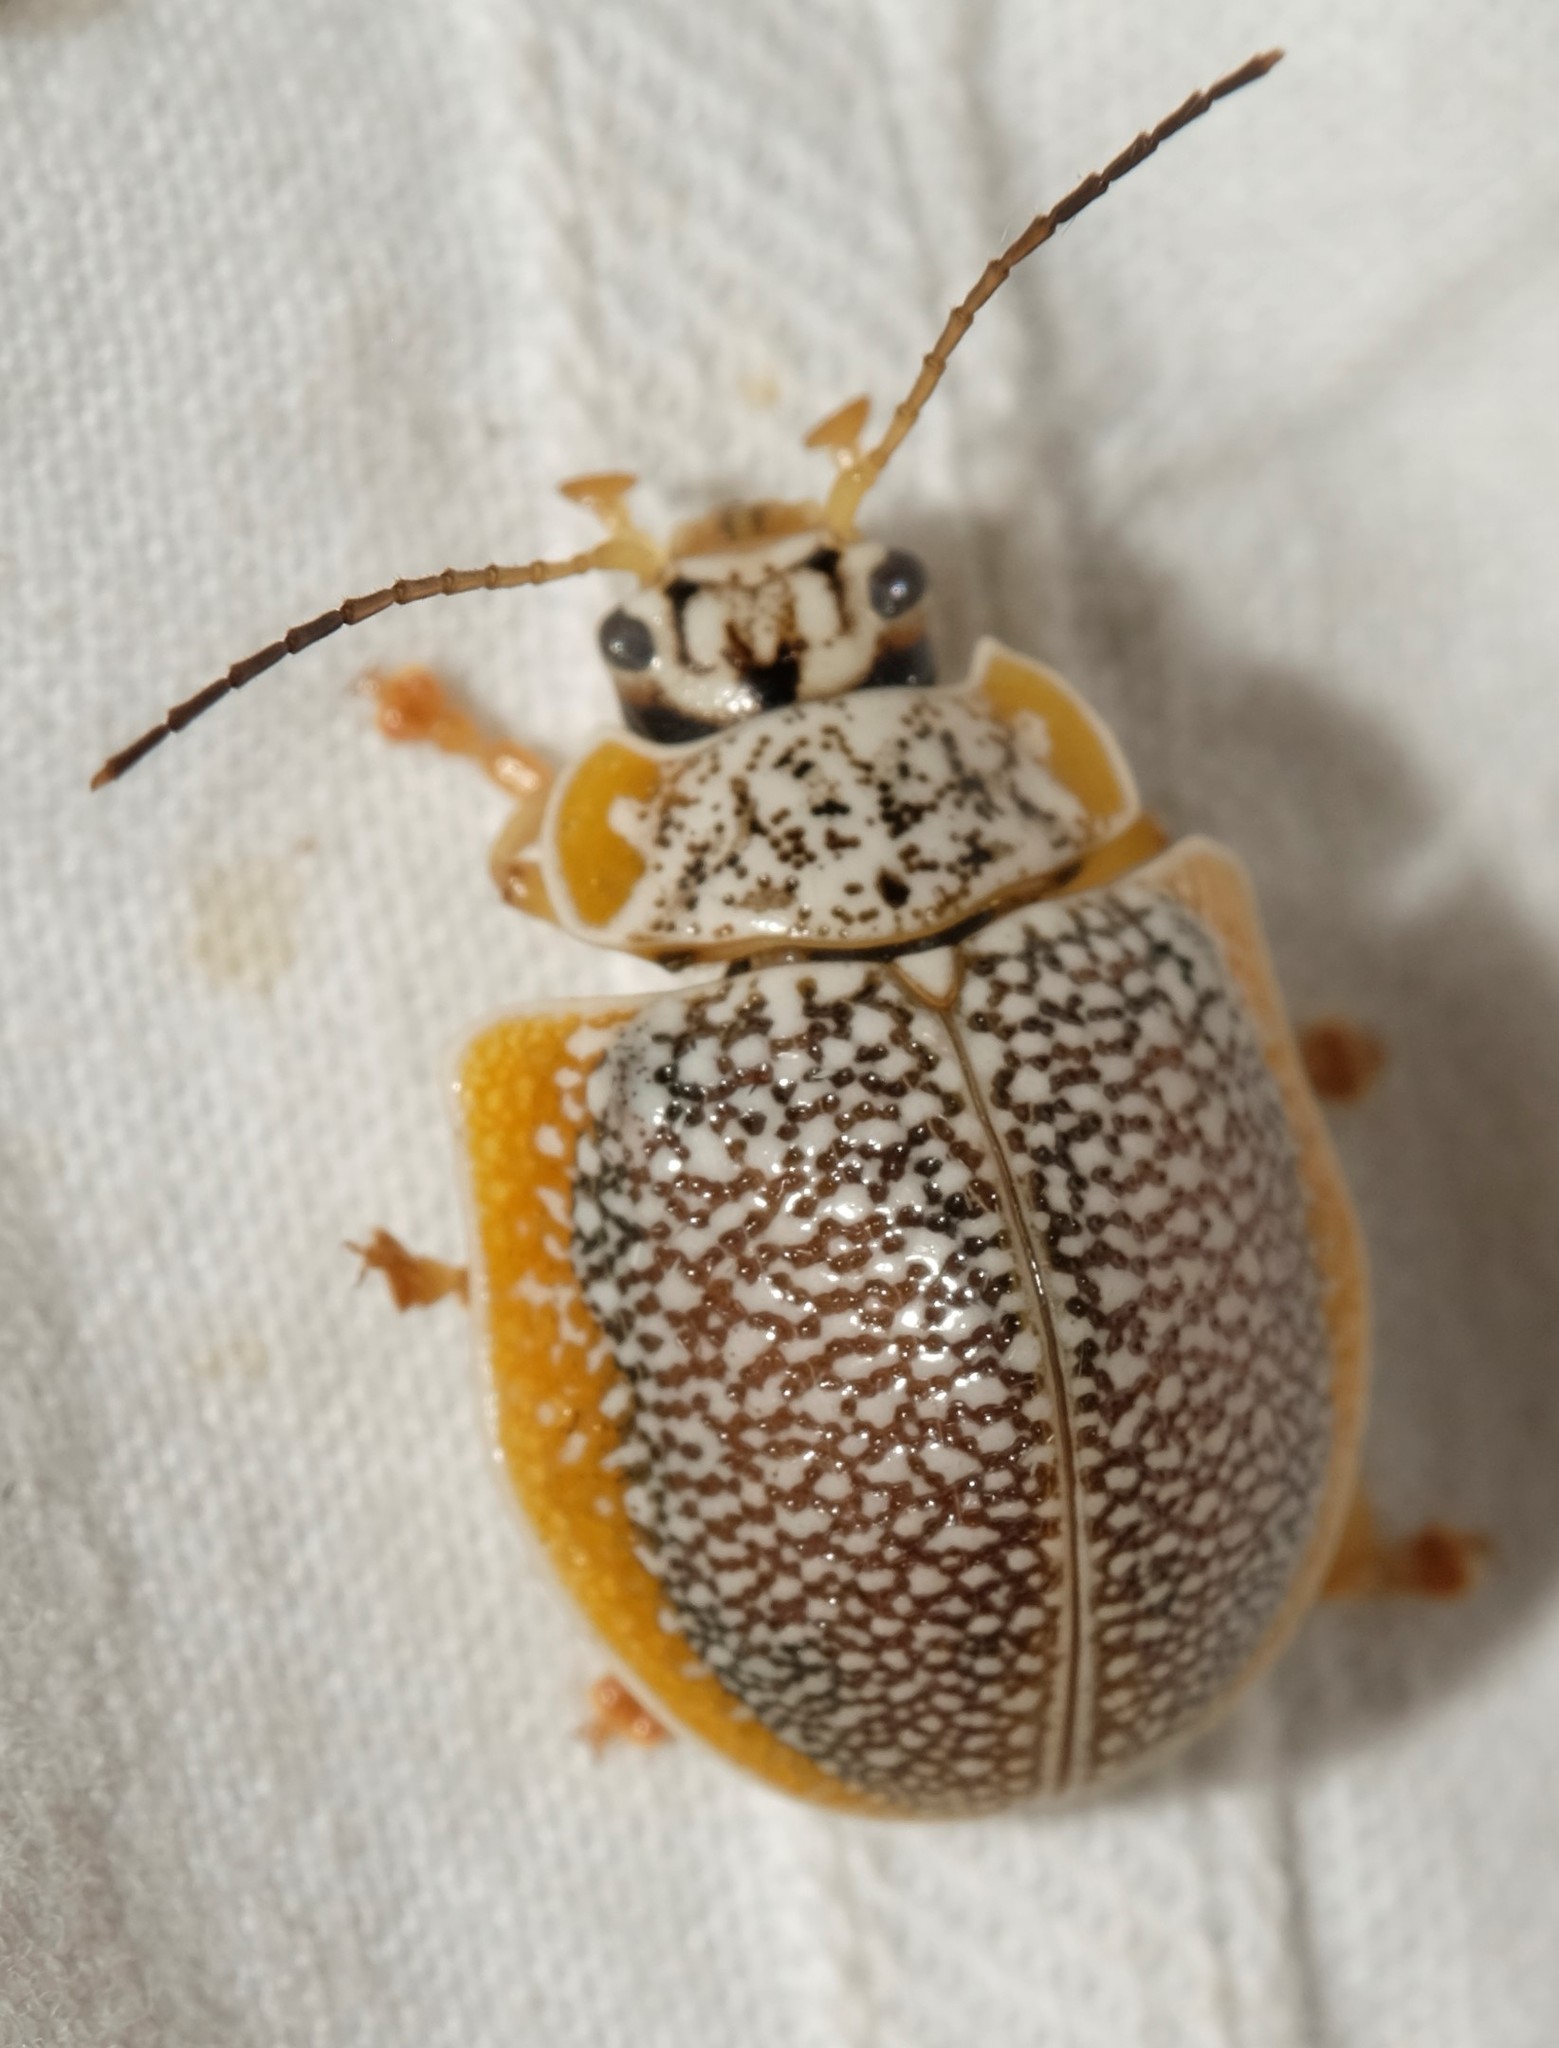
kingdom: Animalia
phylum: Arthropoda
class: Insecta
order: Coleoptera
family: Chrysomelidae
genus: Paropsis
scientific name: Paropsis
